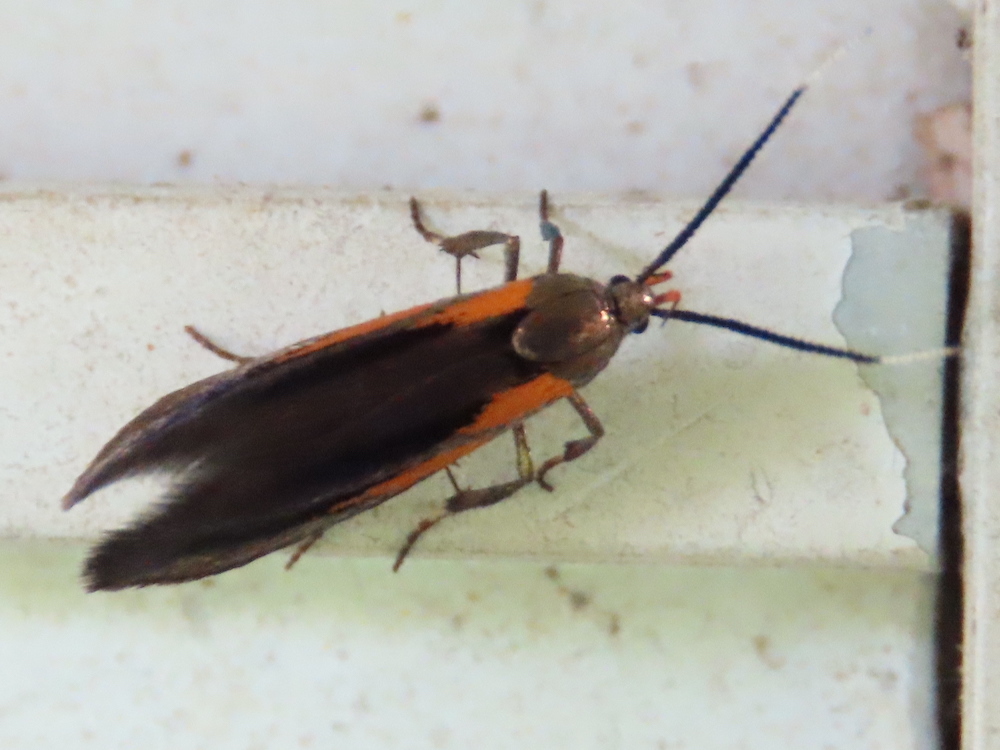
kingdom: Animalia
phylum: Arthropoda
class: Insecta
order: Lepidoptera
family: Oecophoridae
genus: Mathildana
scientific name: Mathildana newmanella
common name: Newman's mathildana moth
